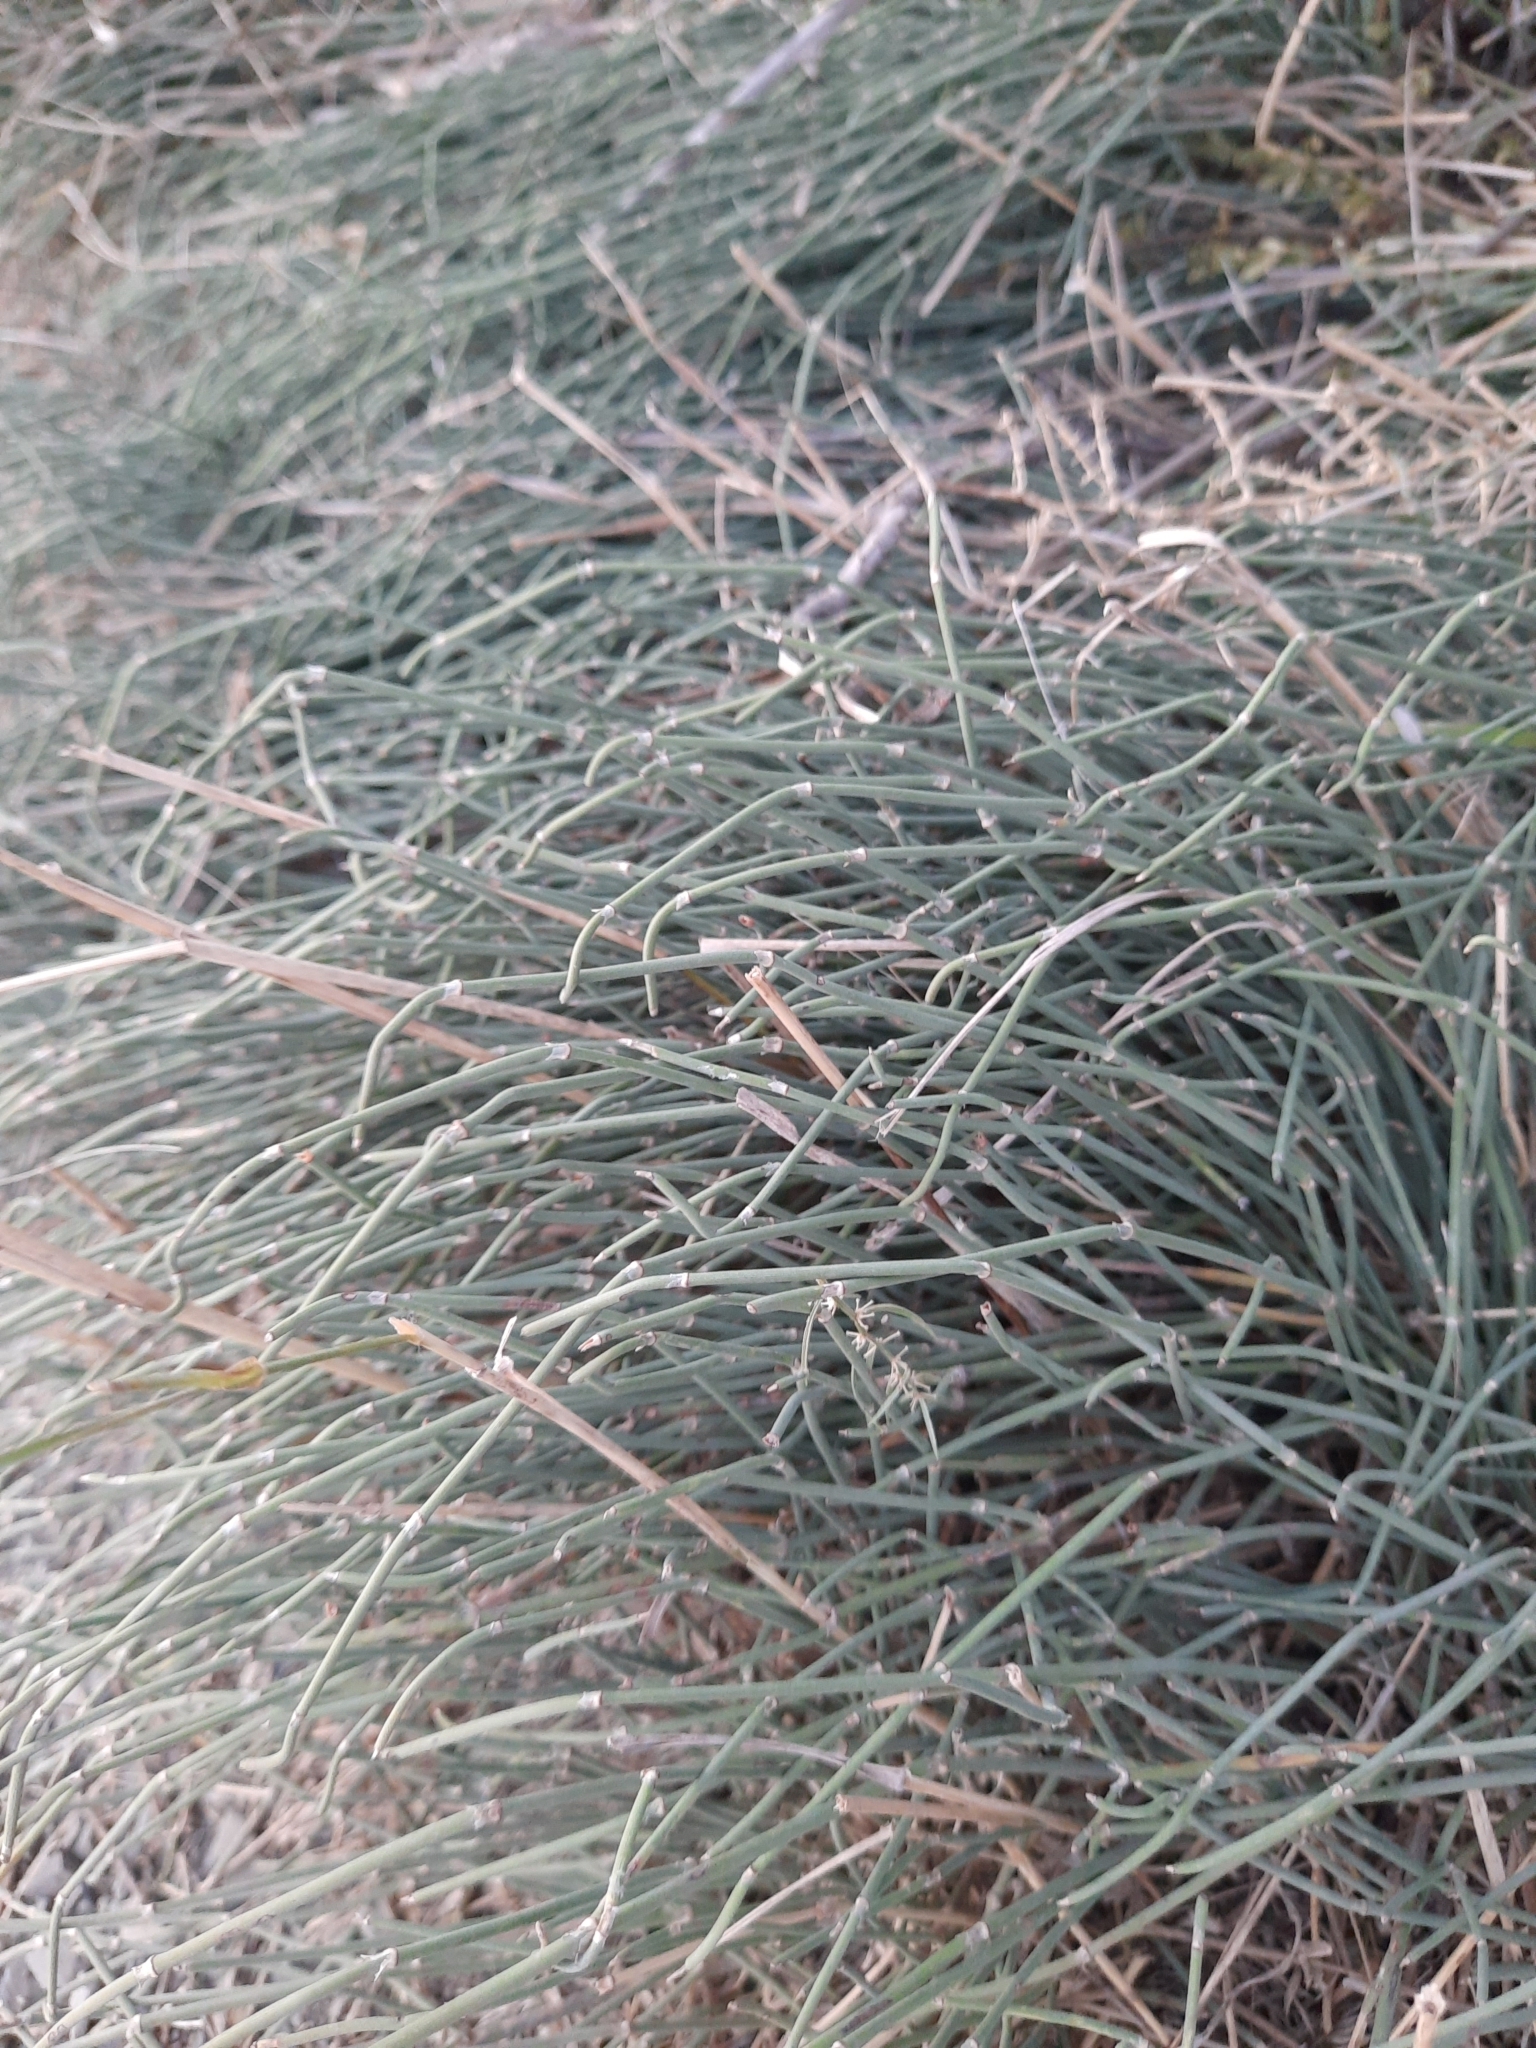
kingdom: Plantae
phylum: Tracheophyta
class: Gnetopsida
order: Ephedrales
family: Ephedraceae
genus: Ephedra
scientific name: Ephedra distachya
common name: Sea grape
